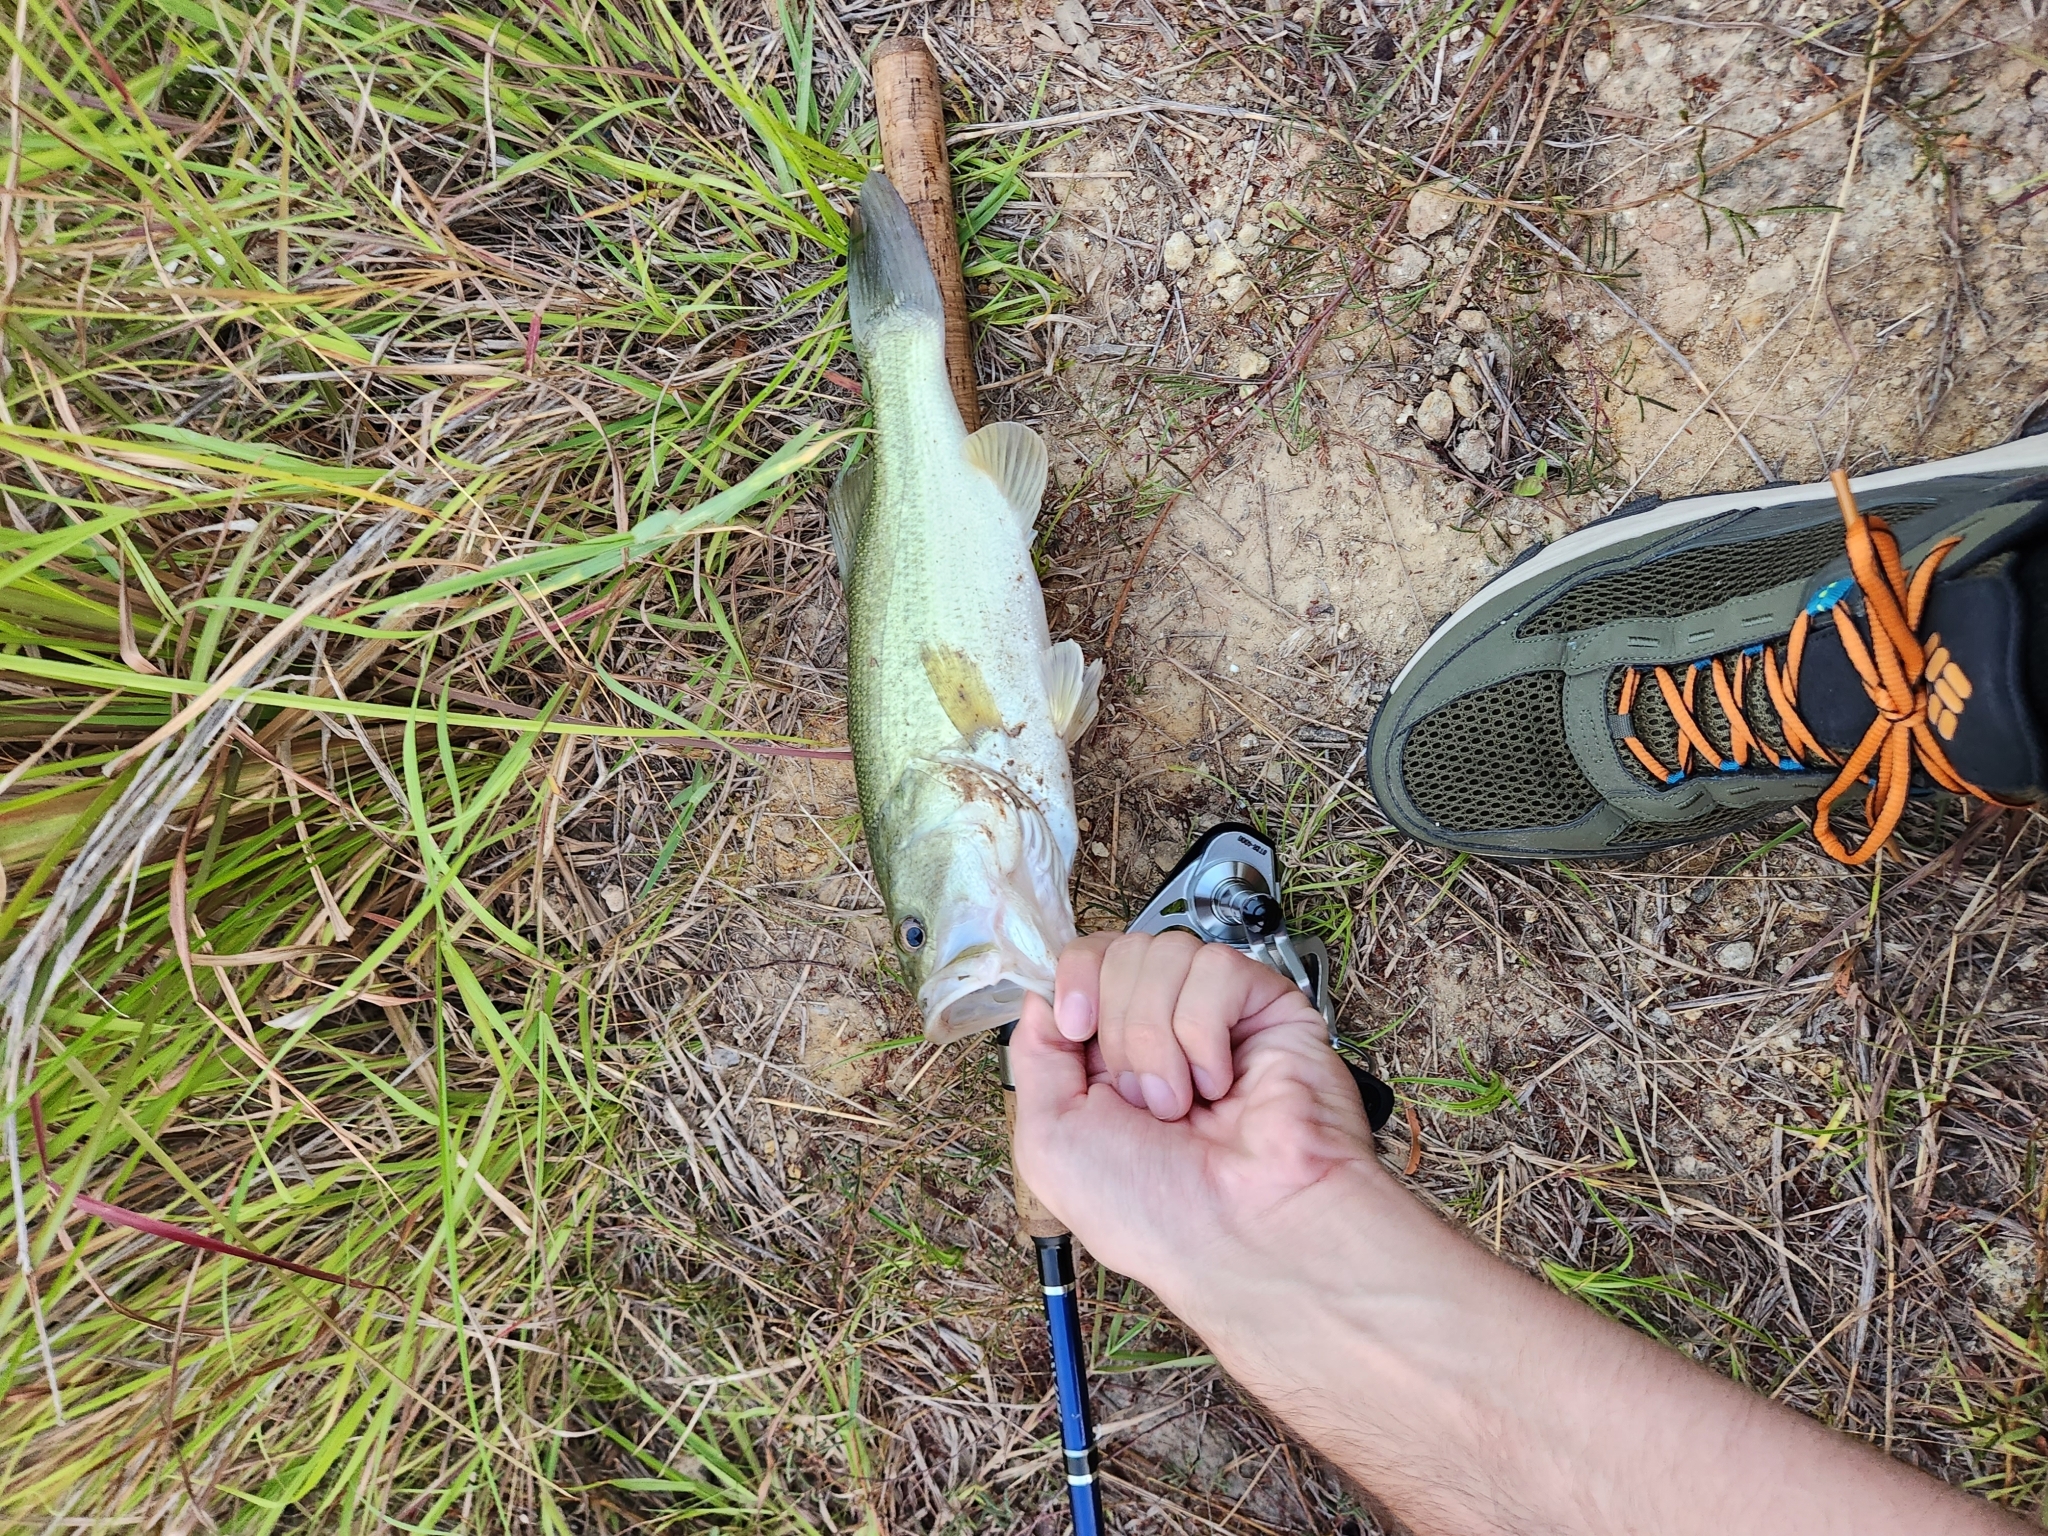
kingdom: Animalia
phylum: Chordata
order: Perciformes
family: Centrarchidae
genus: Micropterus
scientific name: Micropterus
